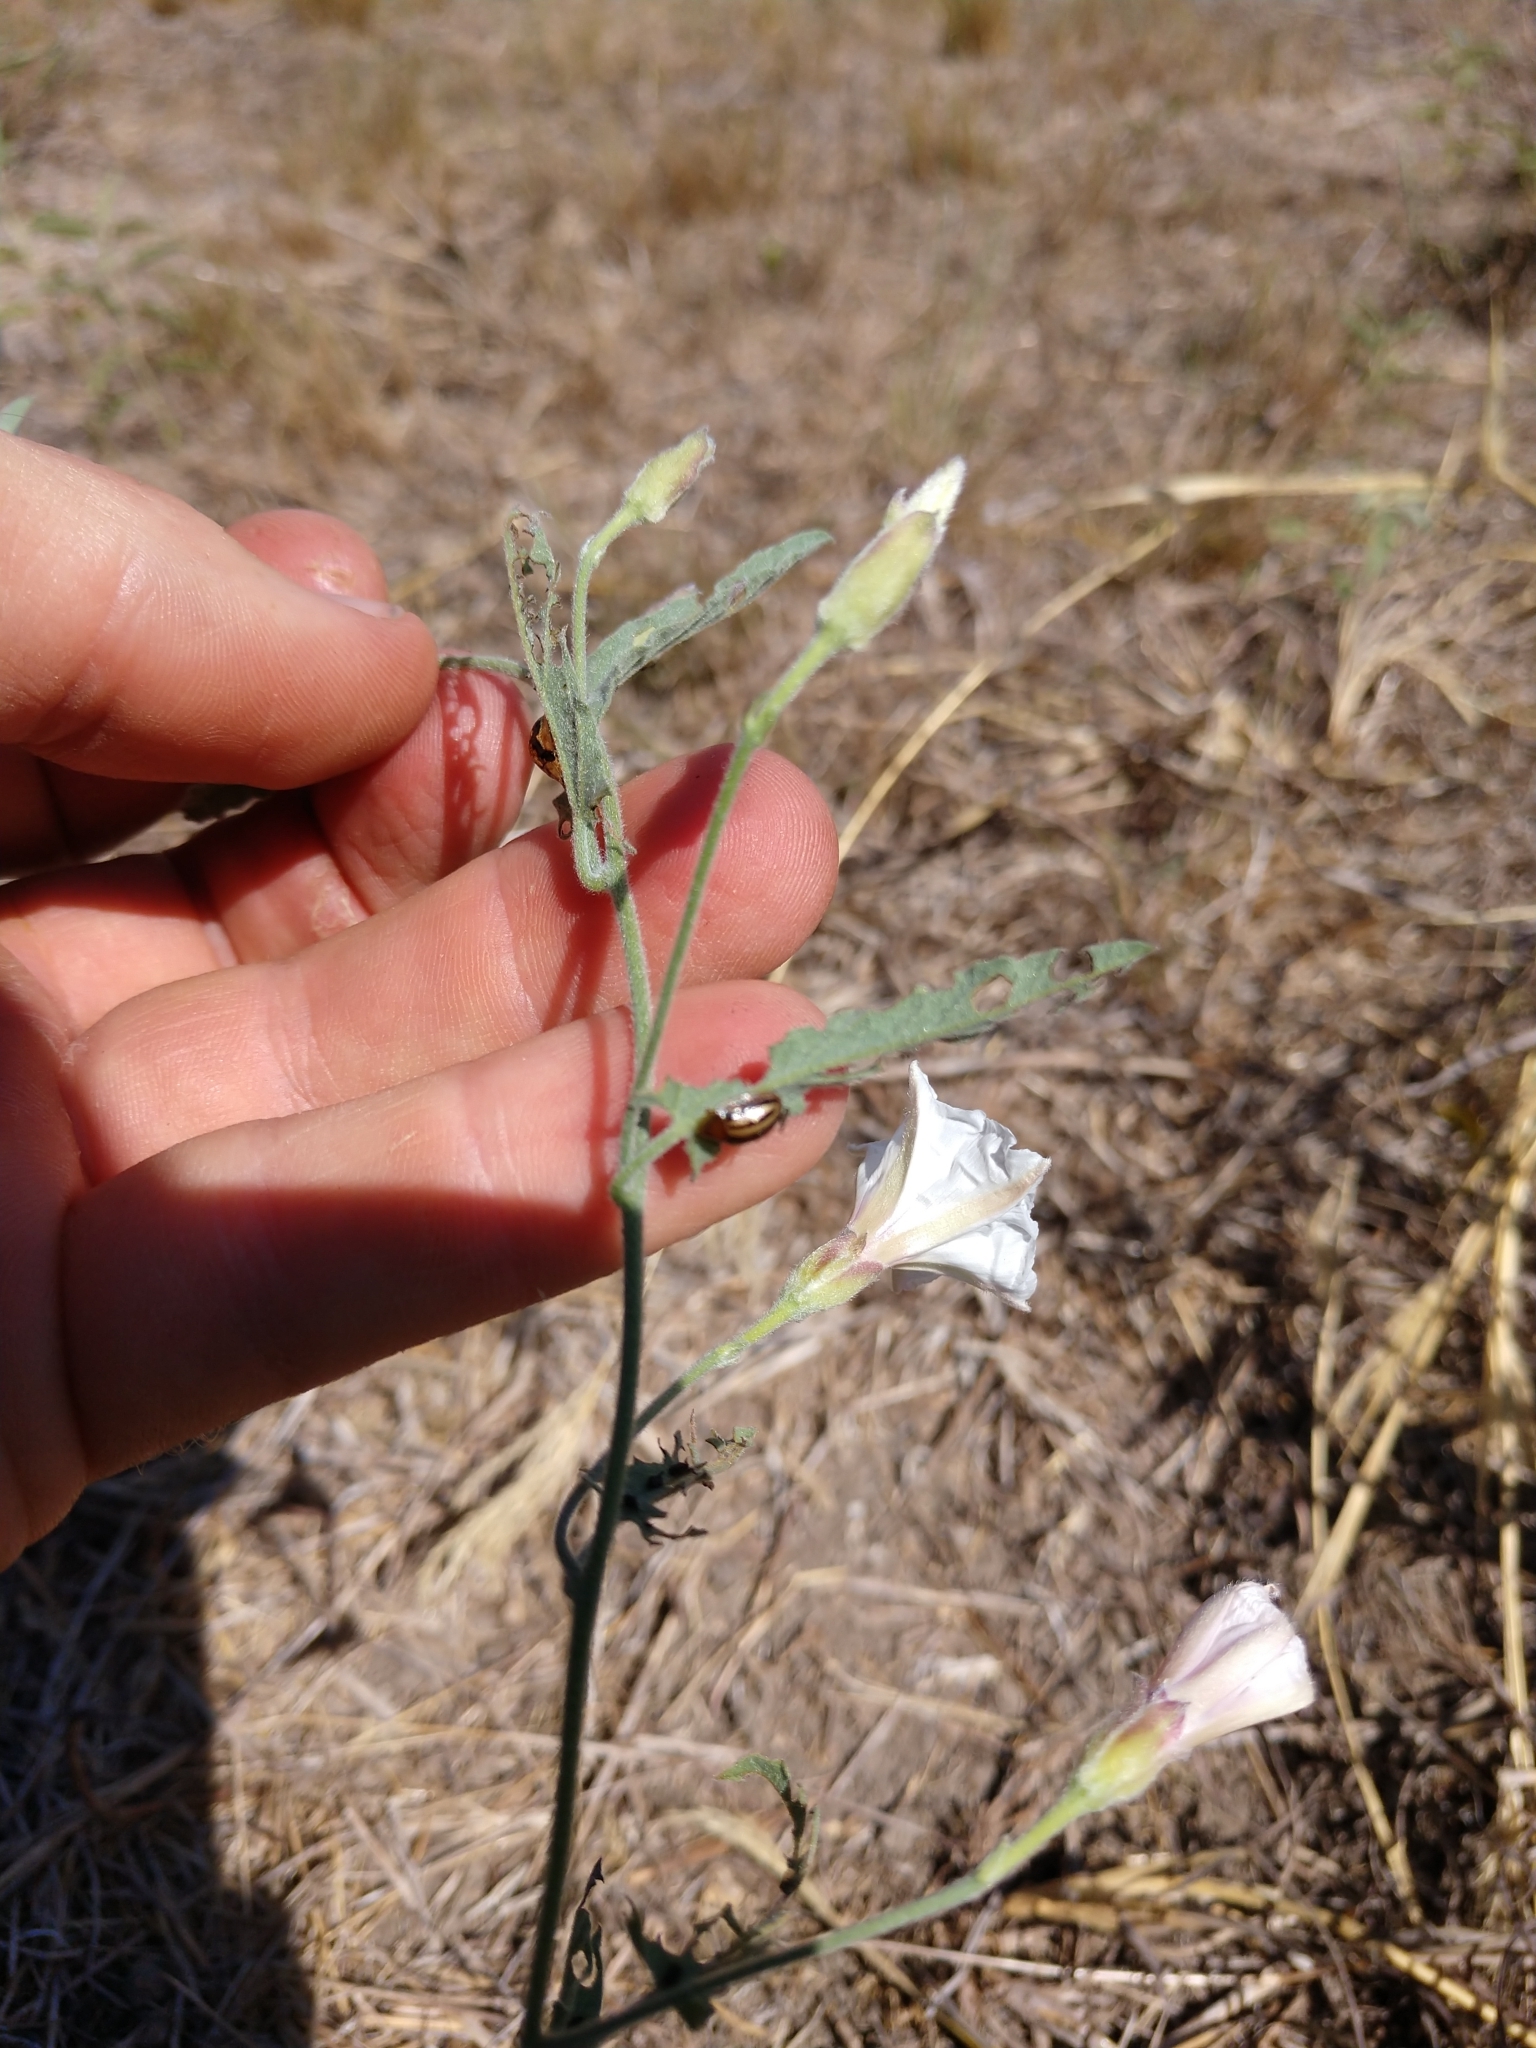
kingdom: Plantae
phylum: Tracheophyta
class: Magnoliopsida
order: Solanales
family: Convolvulaceae
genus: Convolvulus
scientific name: Convolvulus equitans
